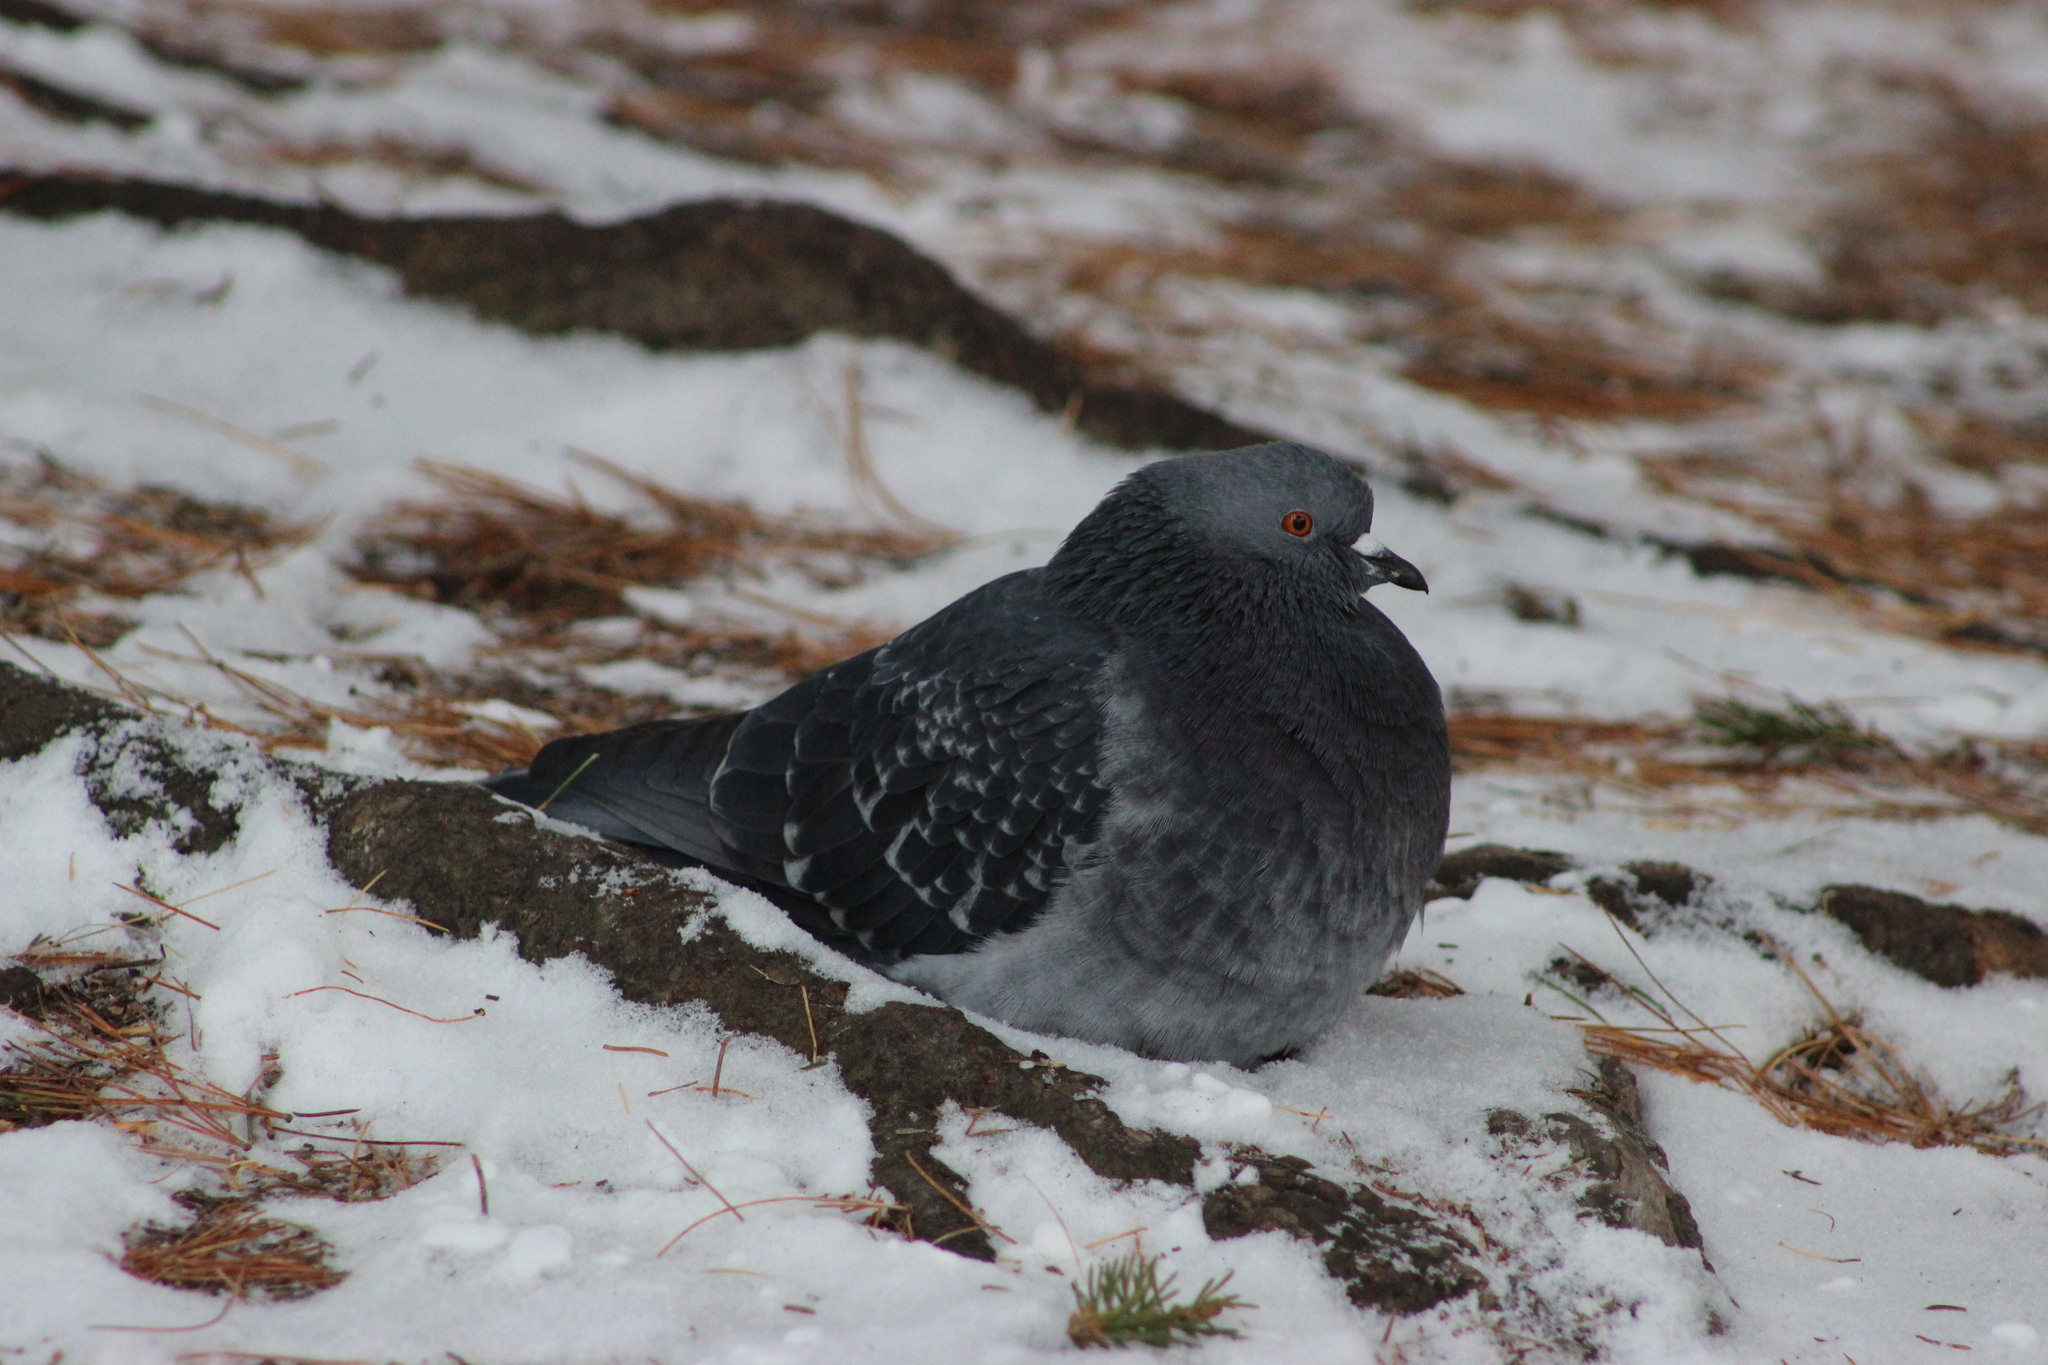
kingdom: Animalia
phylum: Chordata
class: Aves
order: Columbiformes
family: Columbidae
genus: Columba
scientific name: Columba livia
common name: Rock pigeon
